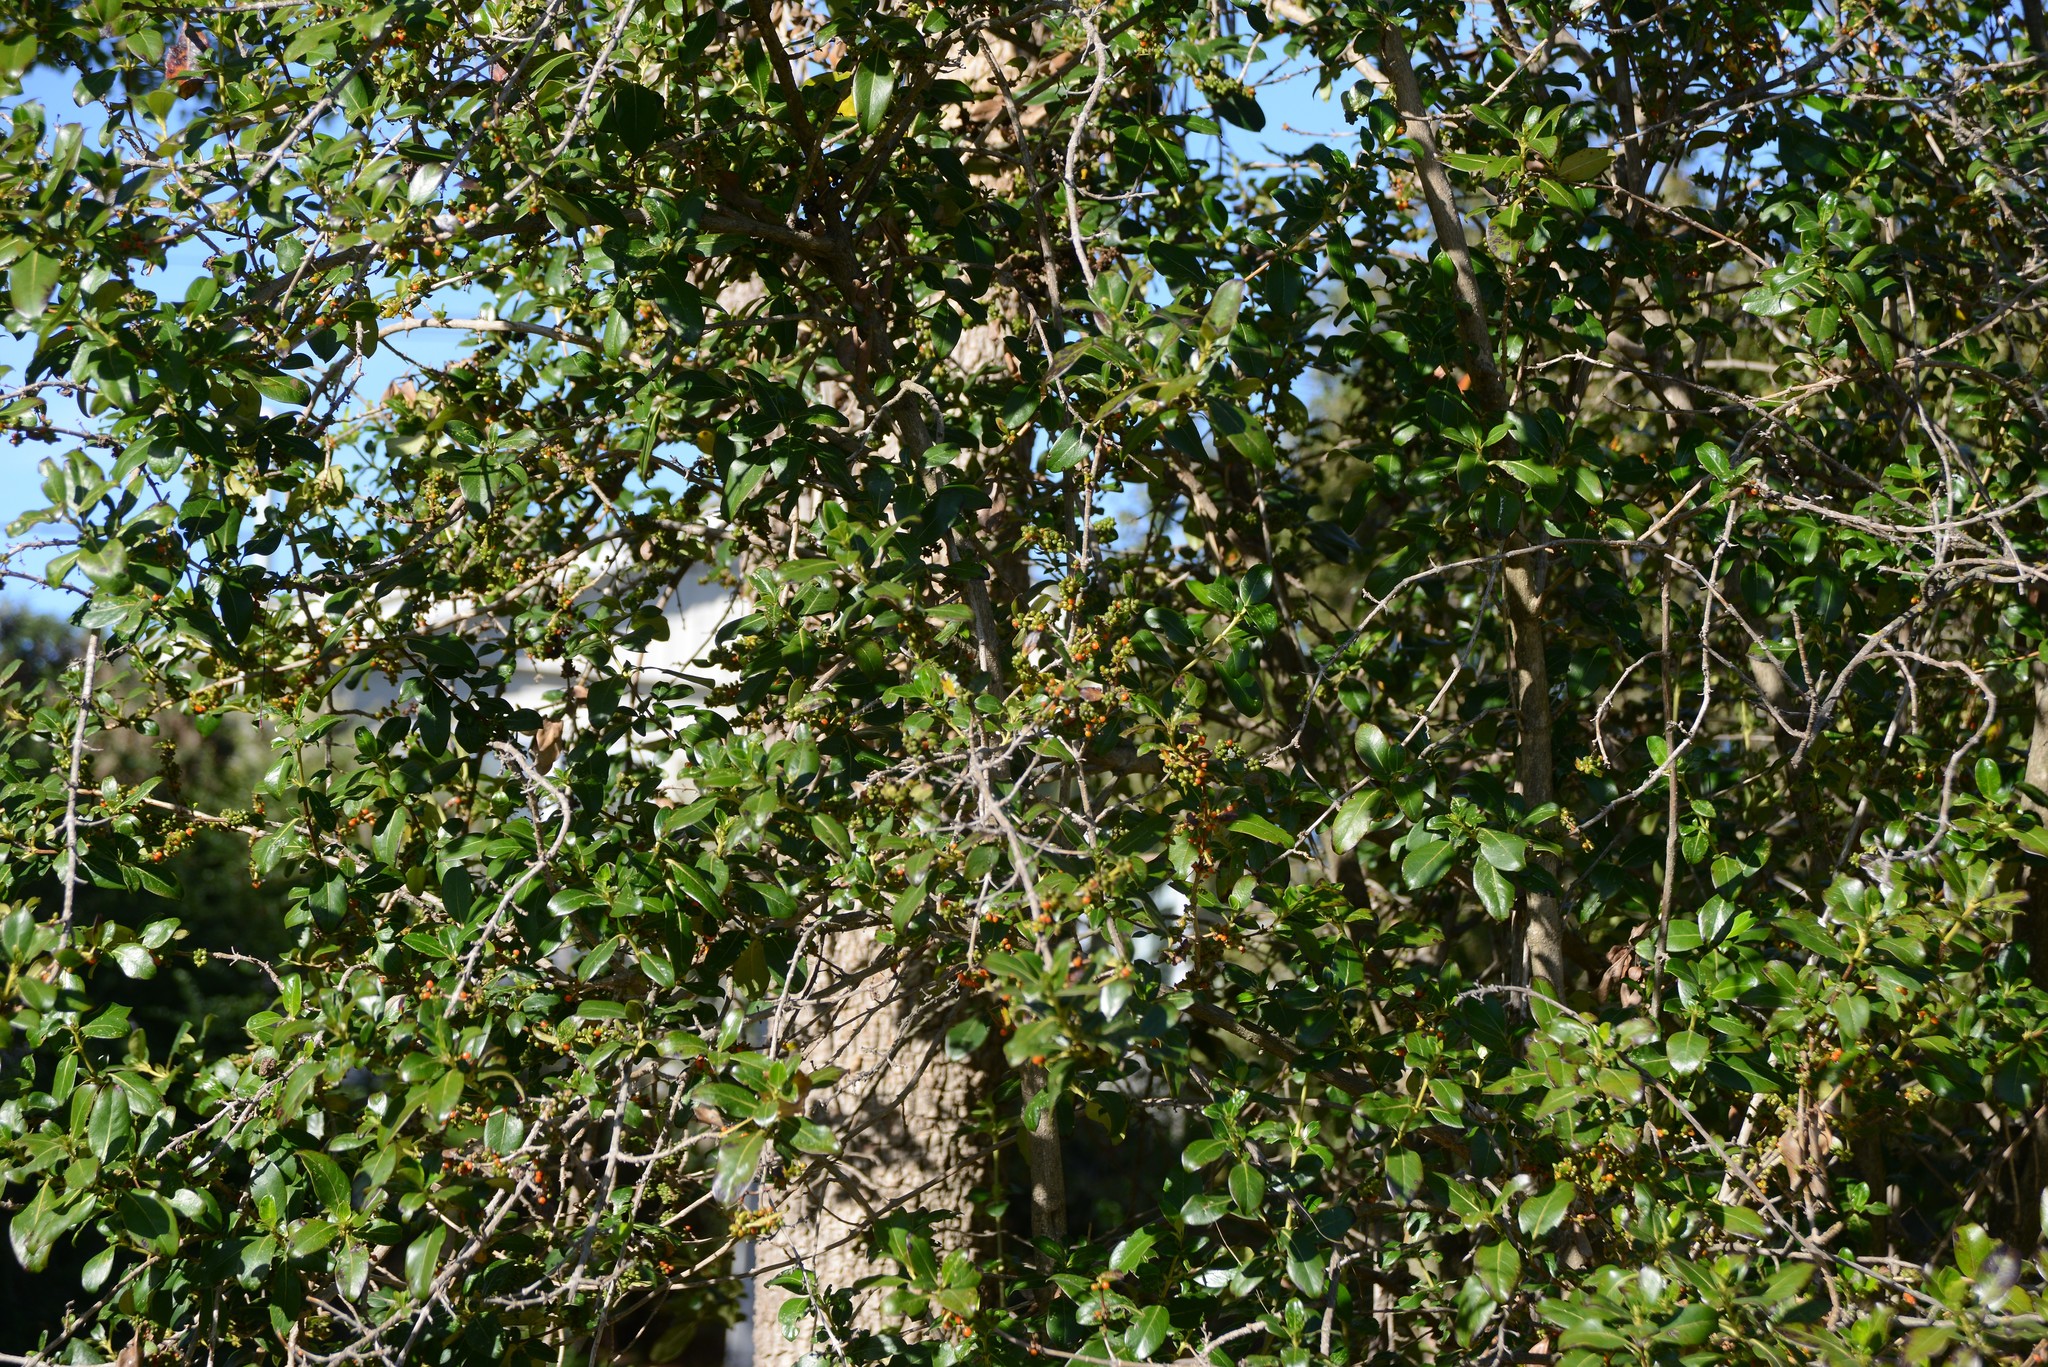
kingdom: Plantae
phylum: Tracheophyta
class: Magnoliopsida
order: Gentianales
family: Rubiaceae
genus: Coprosma
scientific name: Coprosma robusta
